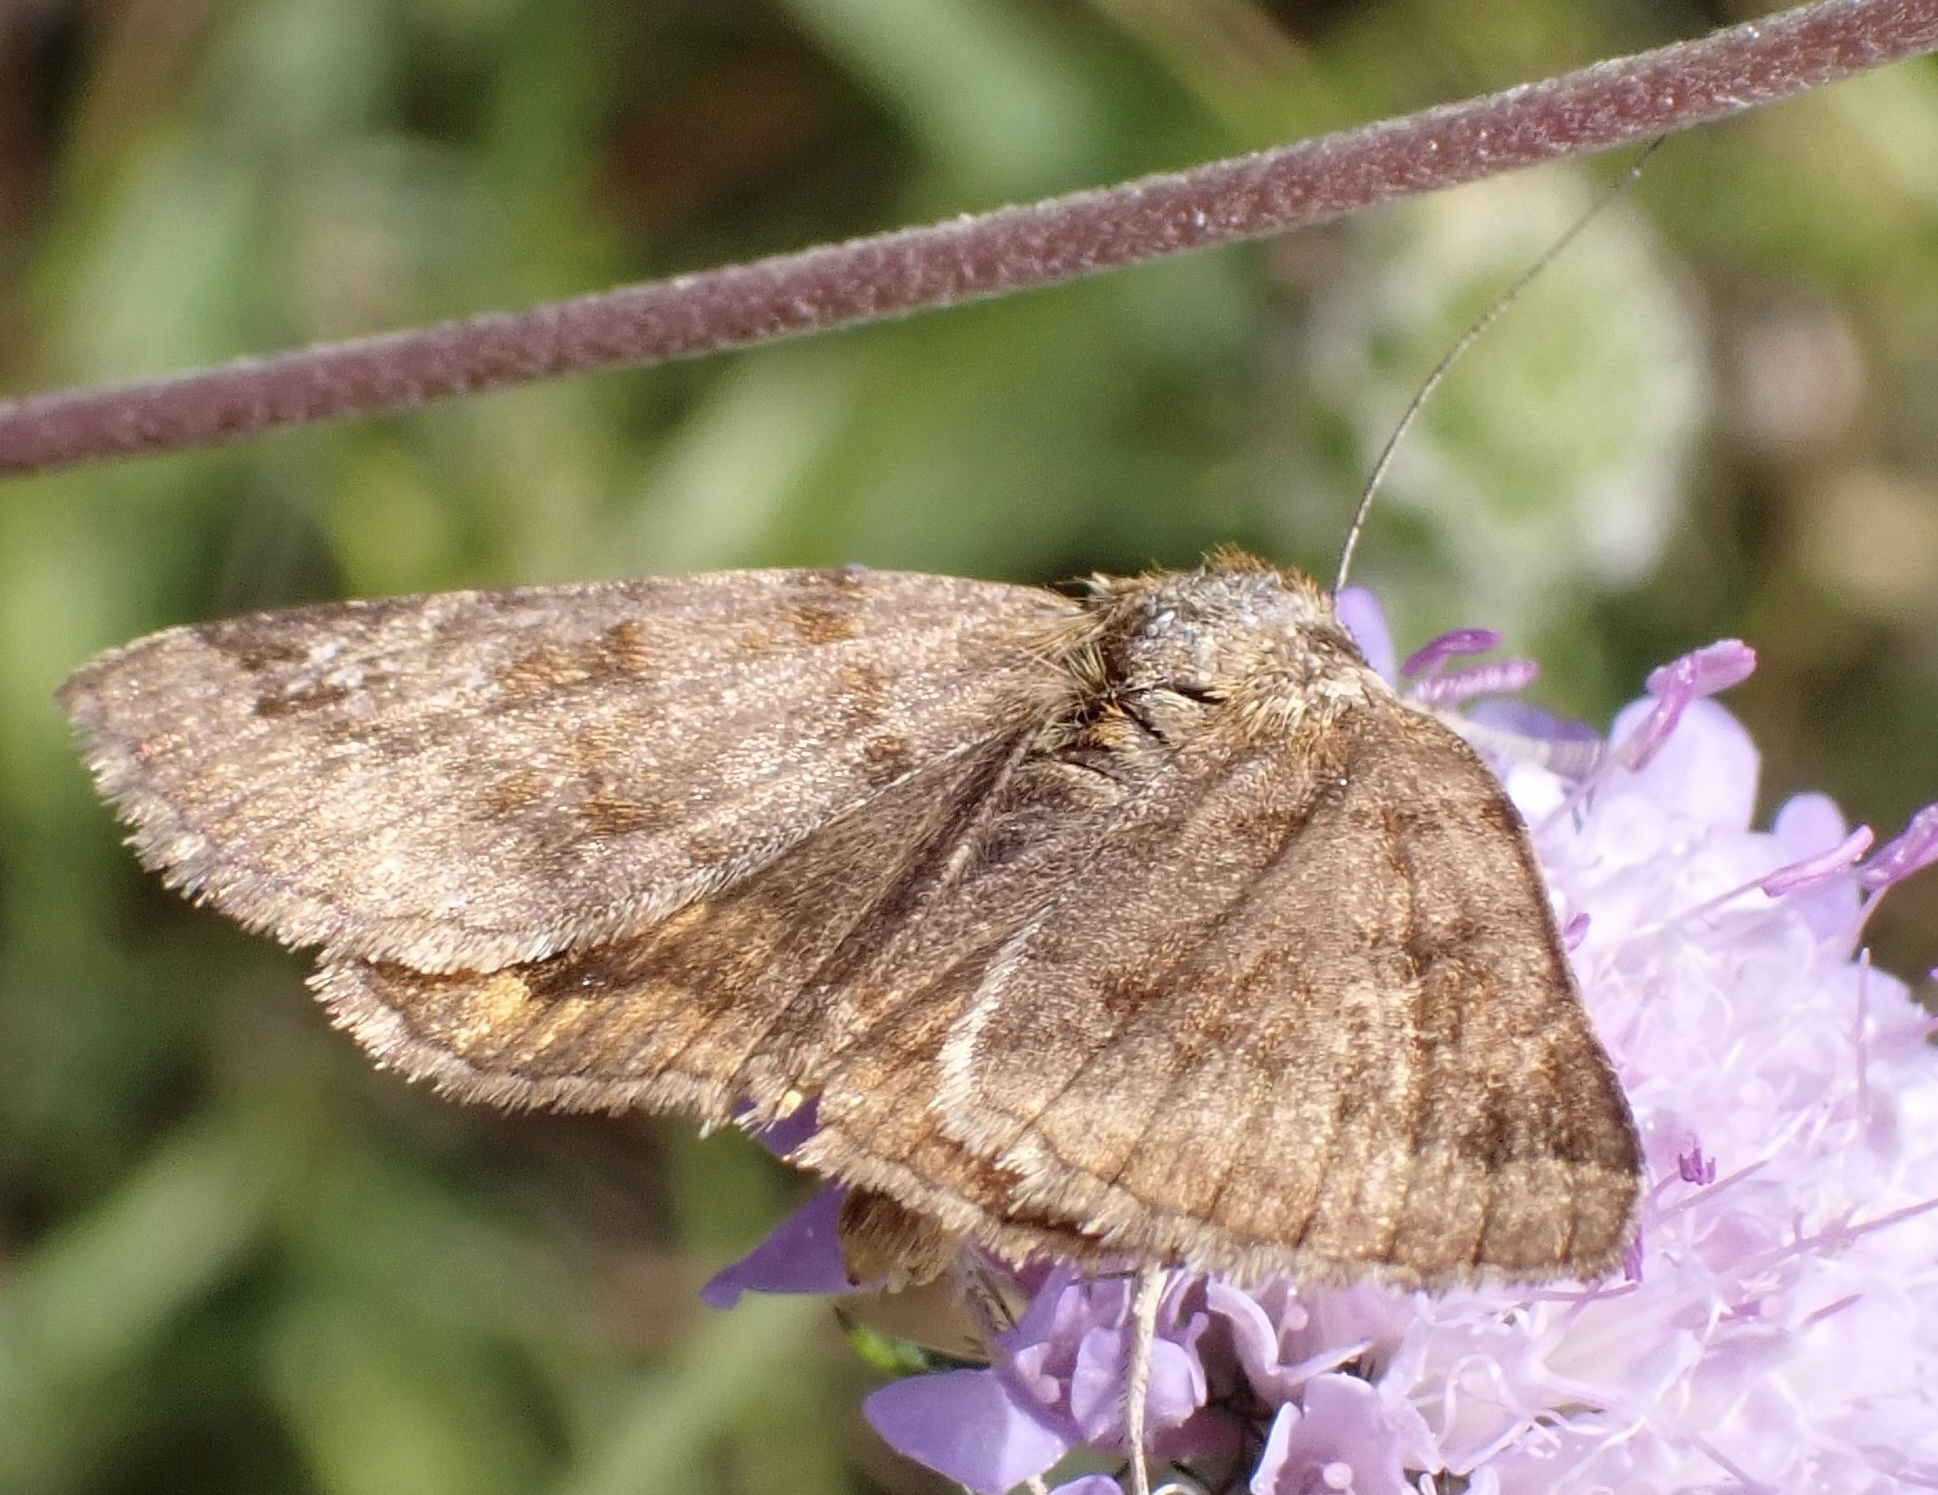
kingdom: Animalia
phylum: Arthropoda
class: Insecta
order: Lepidoptera
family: Erebidae
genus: Euclidia
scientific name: Euclidia glyphica
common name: Burnet companion
